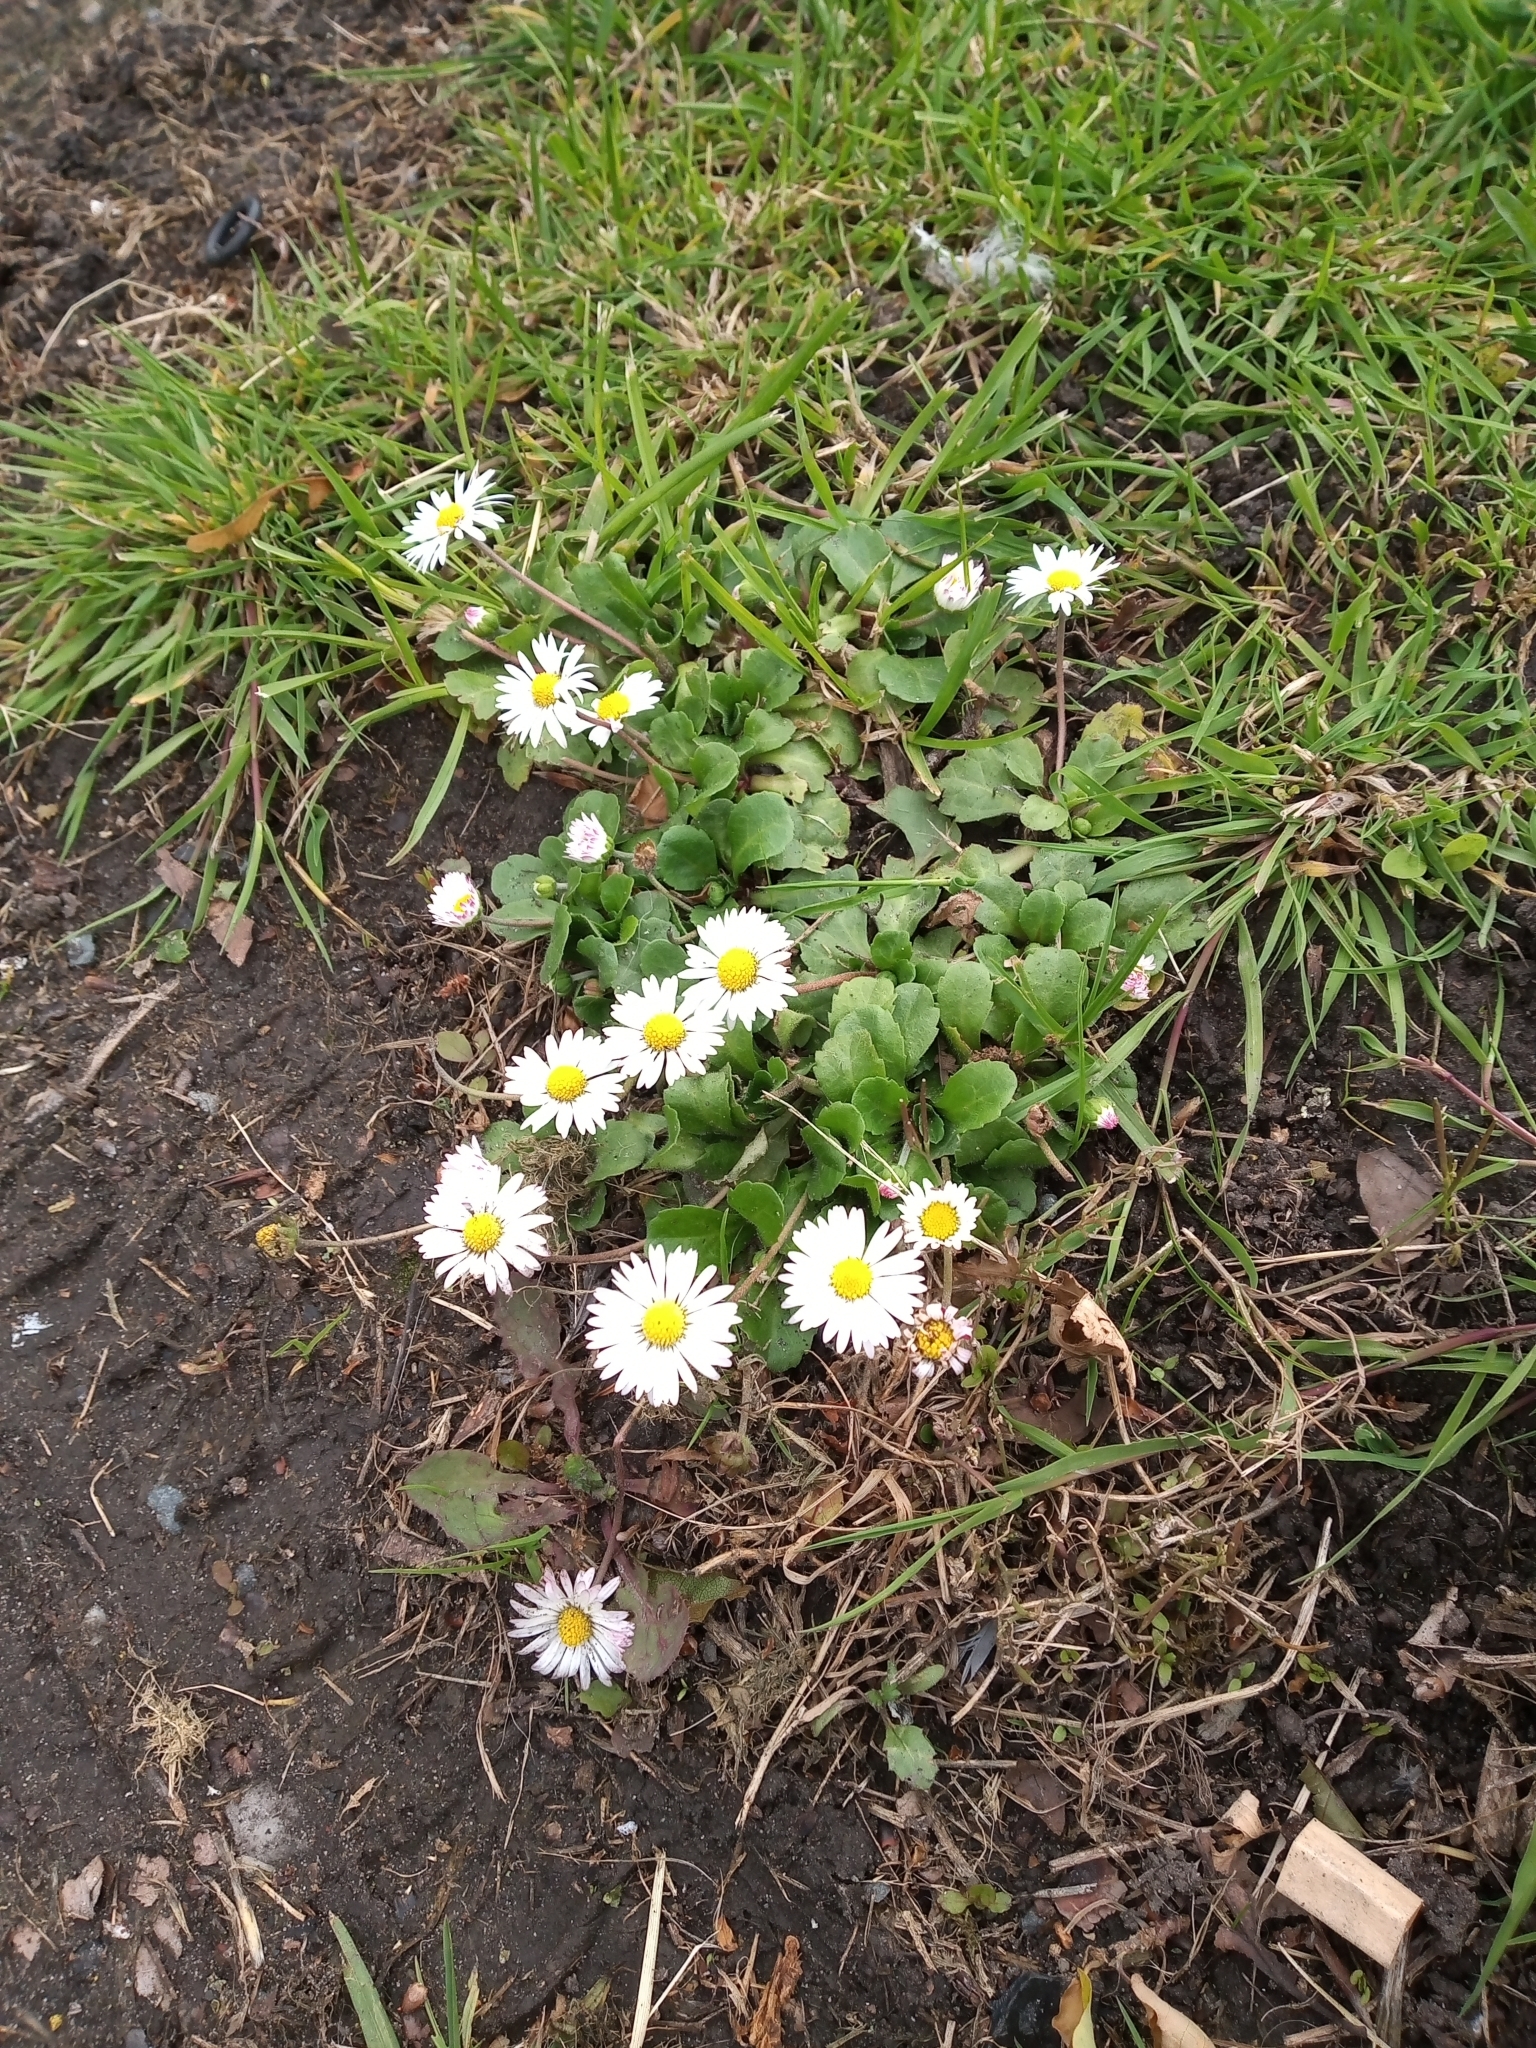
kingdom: Plantae
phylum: Tracheophyta
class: Magnoliopsida
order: Asterales
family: Asteraceae
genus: Bellis
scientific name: Bellis perennis
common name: Lawndaisy
